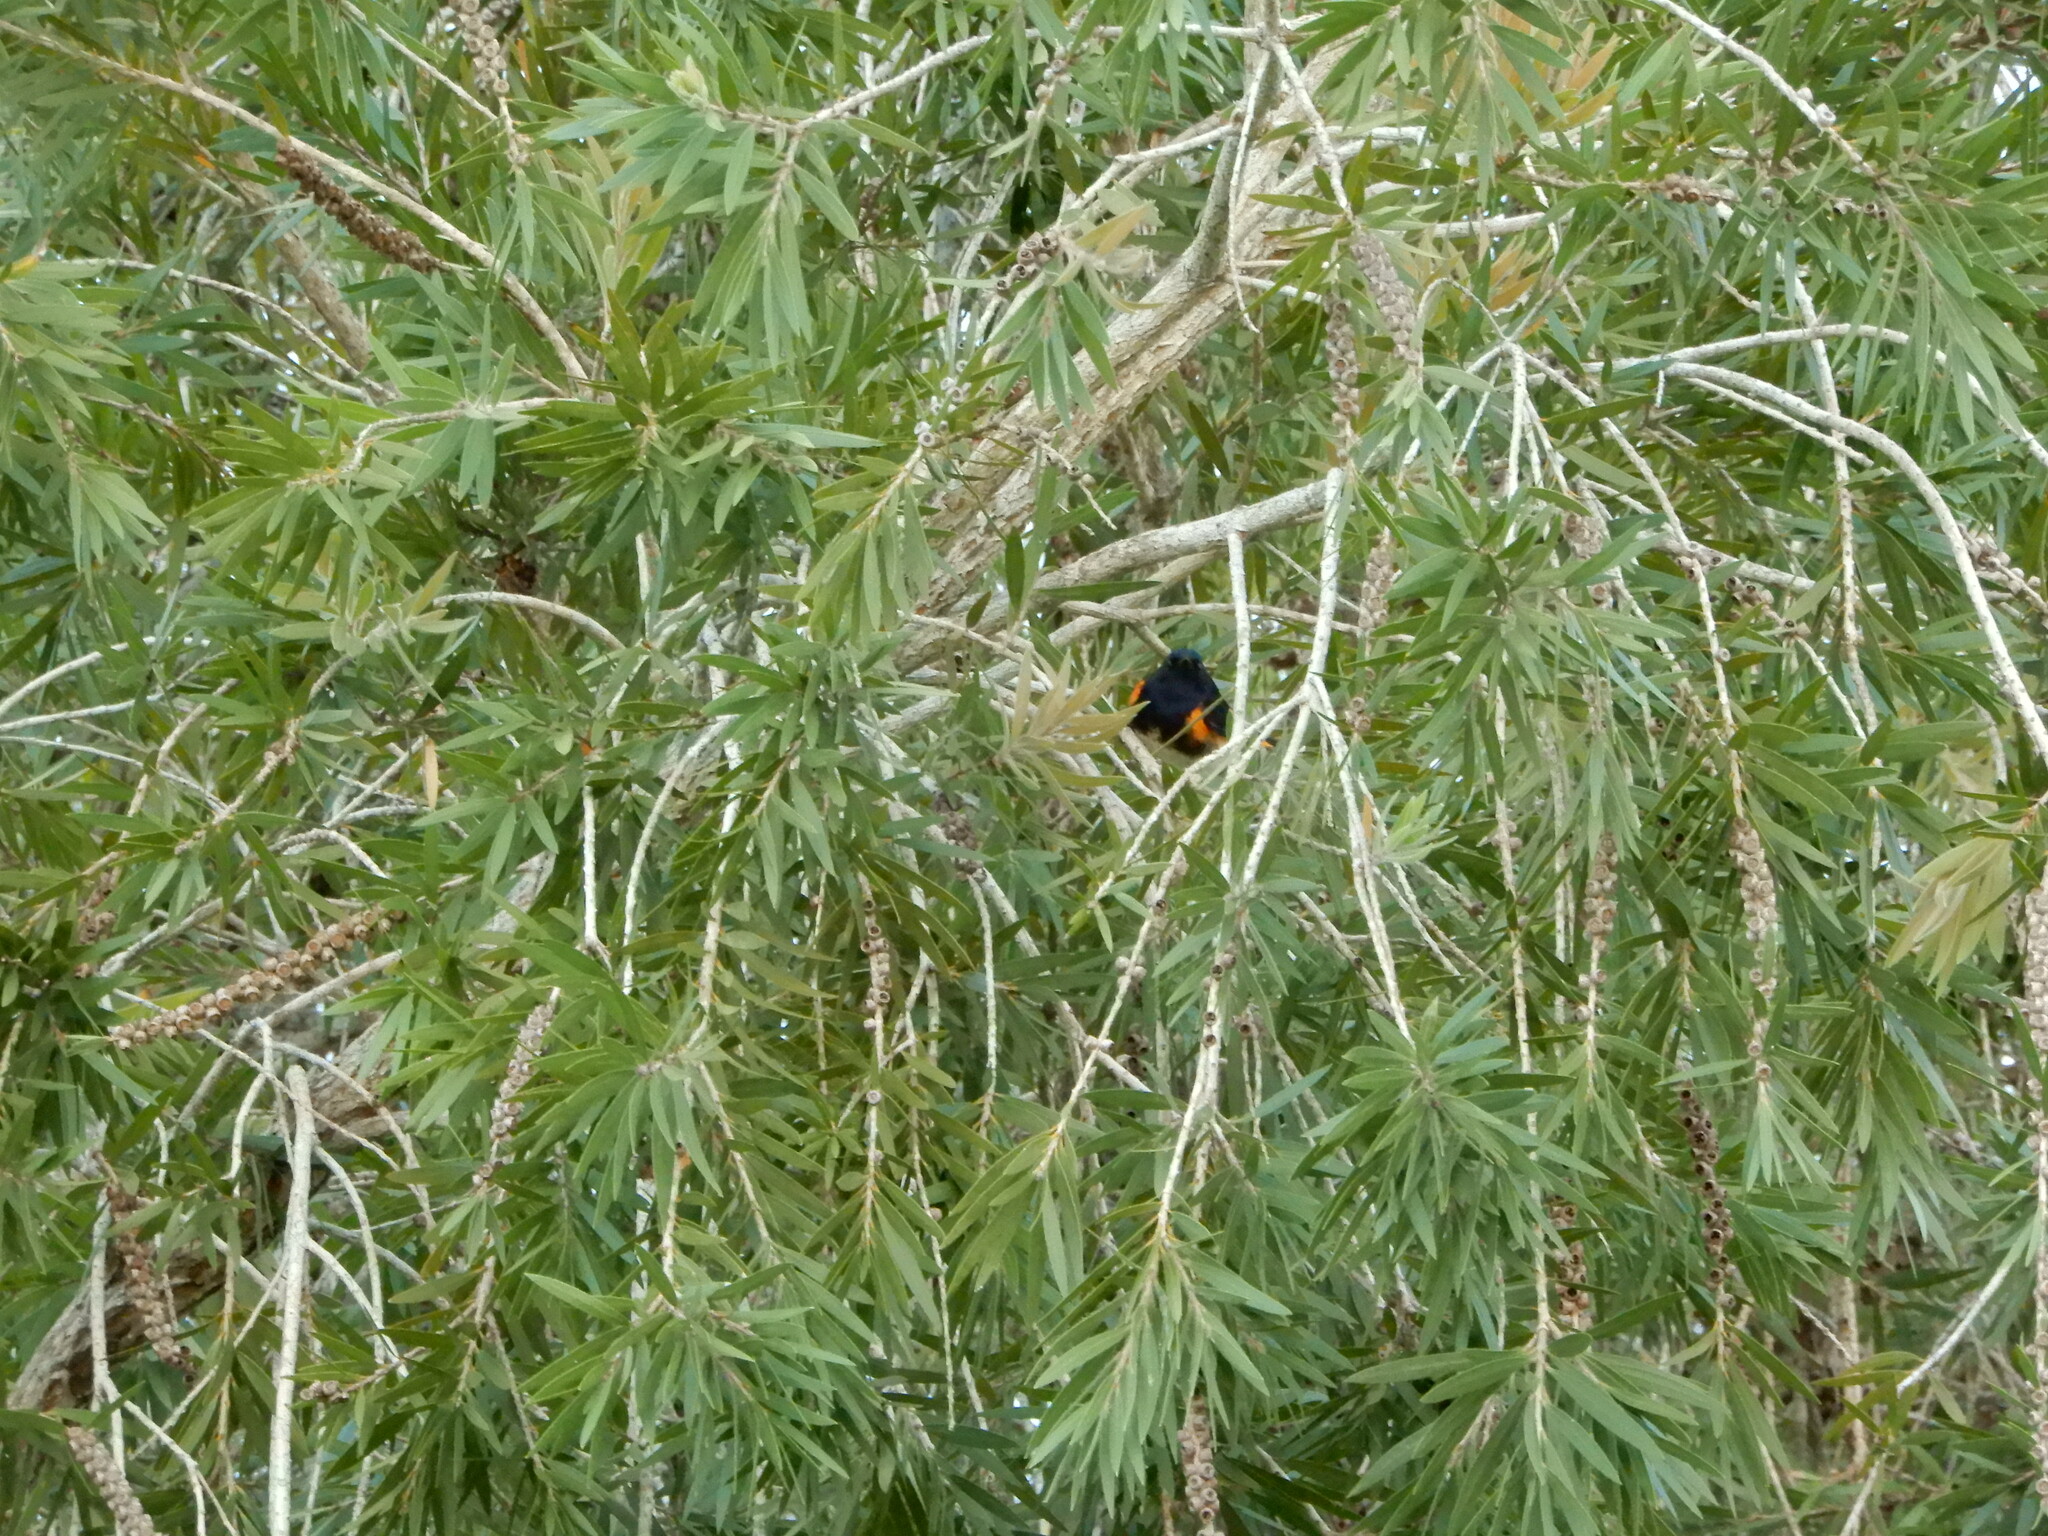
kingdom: Animalia
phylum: Chordata
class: Aves
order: Passeriformes
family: Parulidae
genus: Setophaga
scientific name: Setophaga ruticilla
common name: American redstart
